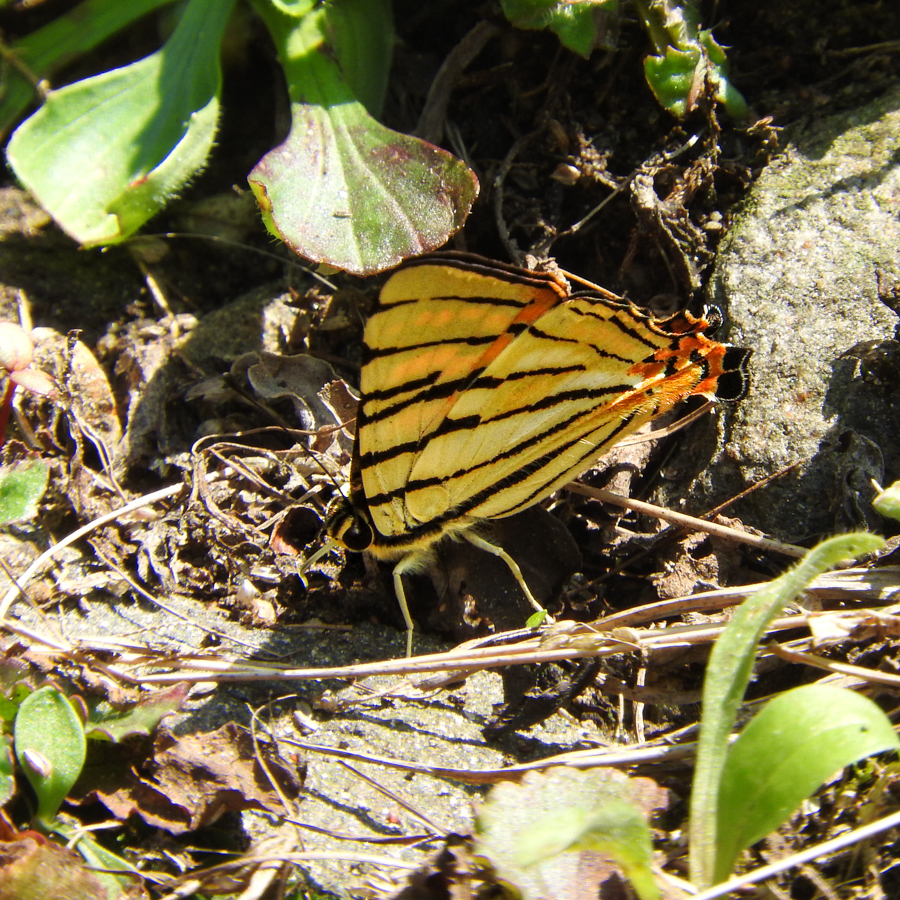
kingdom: Animalia
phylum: Arthropoda
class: Insecta
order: Lepidoptera
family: Lycaenidae
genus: Dodona
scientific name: Dodona adonira
